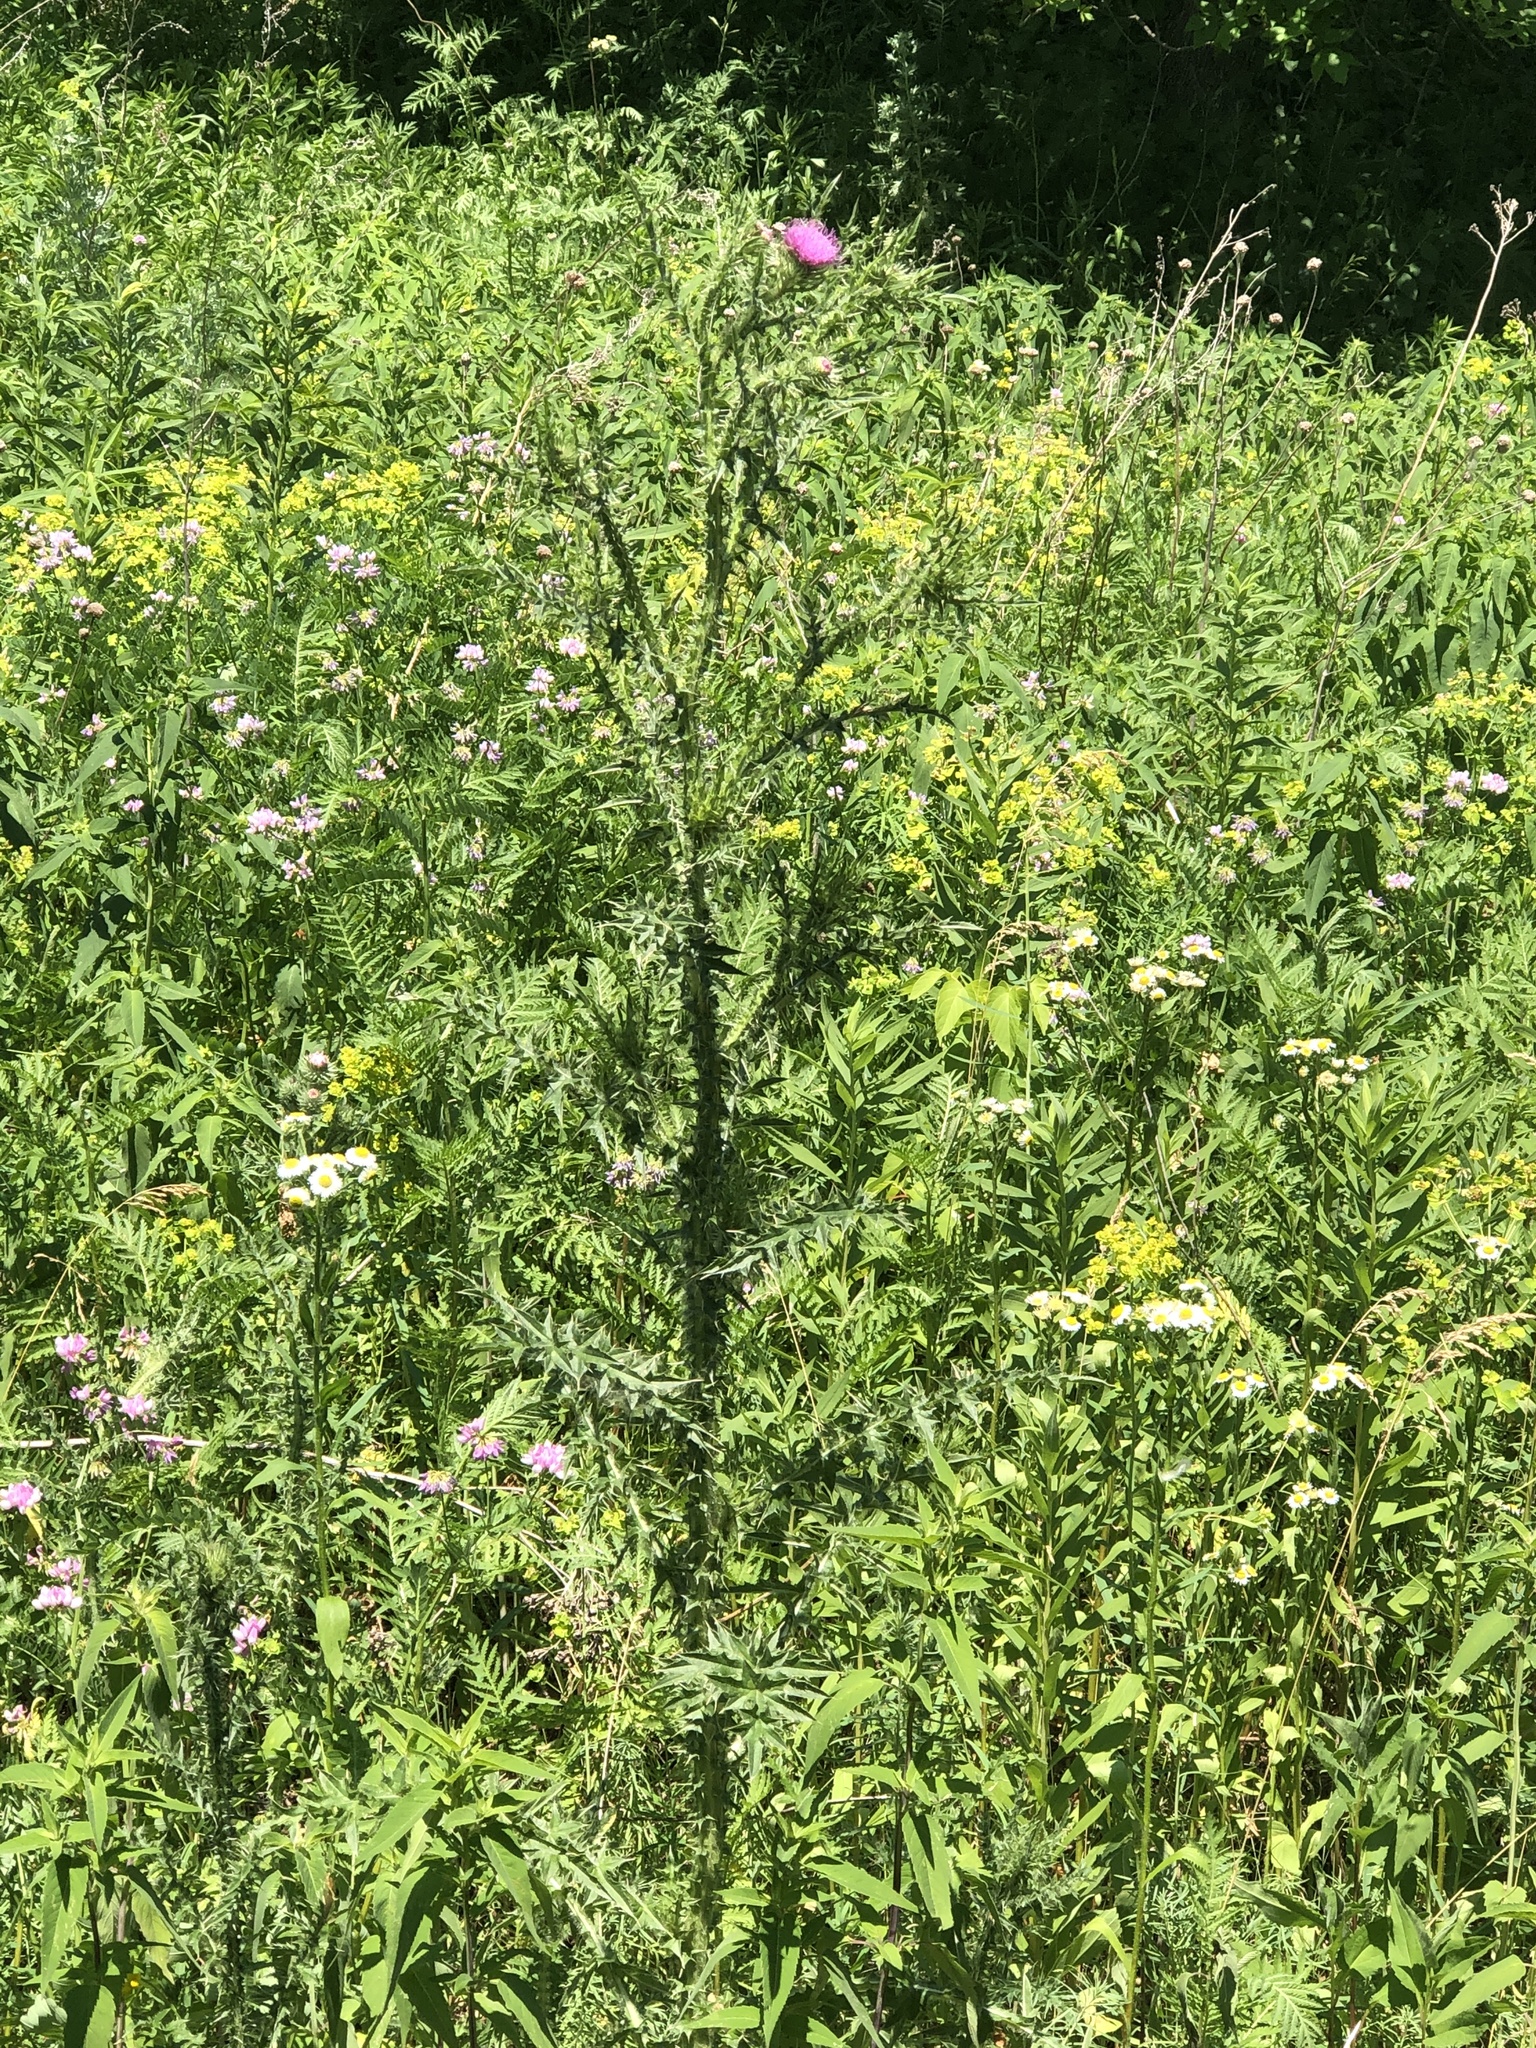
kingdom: Plantae
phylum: Tracheophyta
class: Magnoliopsida
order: Asterales
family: Asteraceae
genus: Carduus
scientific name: Carduus acanthoides
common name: Plumeless thistle
